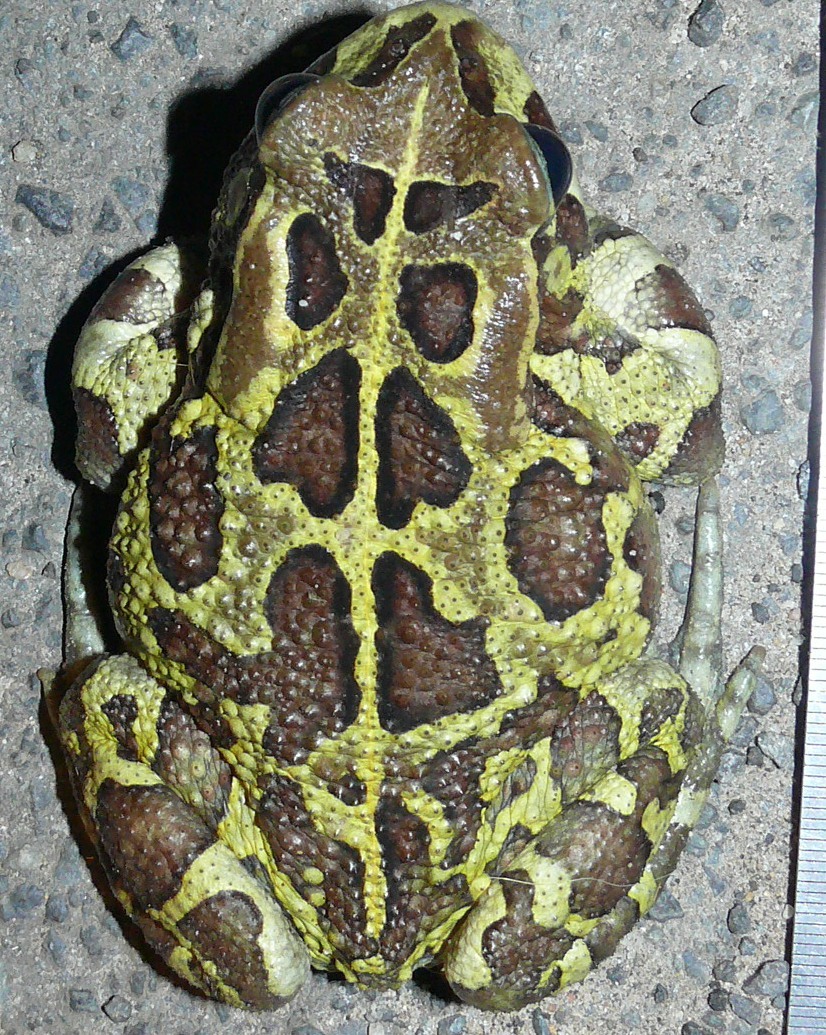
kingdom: Animalia
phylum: Chordata
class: Amphibia
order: Anura
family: Bufonidae
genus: Sclerophrys
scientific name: Sclerophrys pantherina
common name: Panther toad
